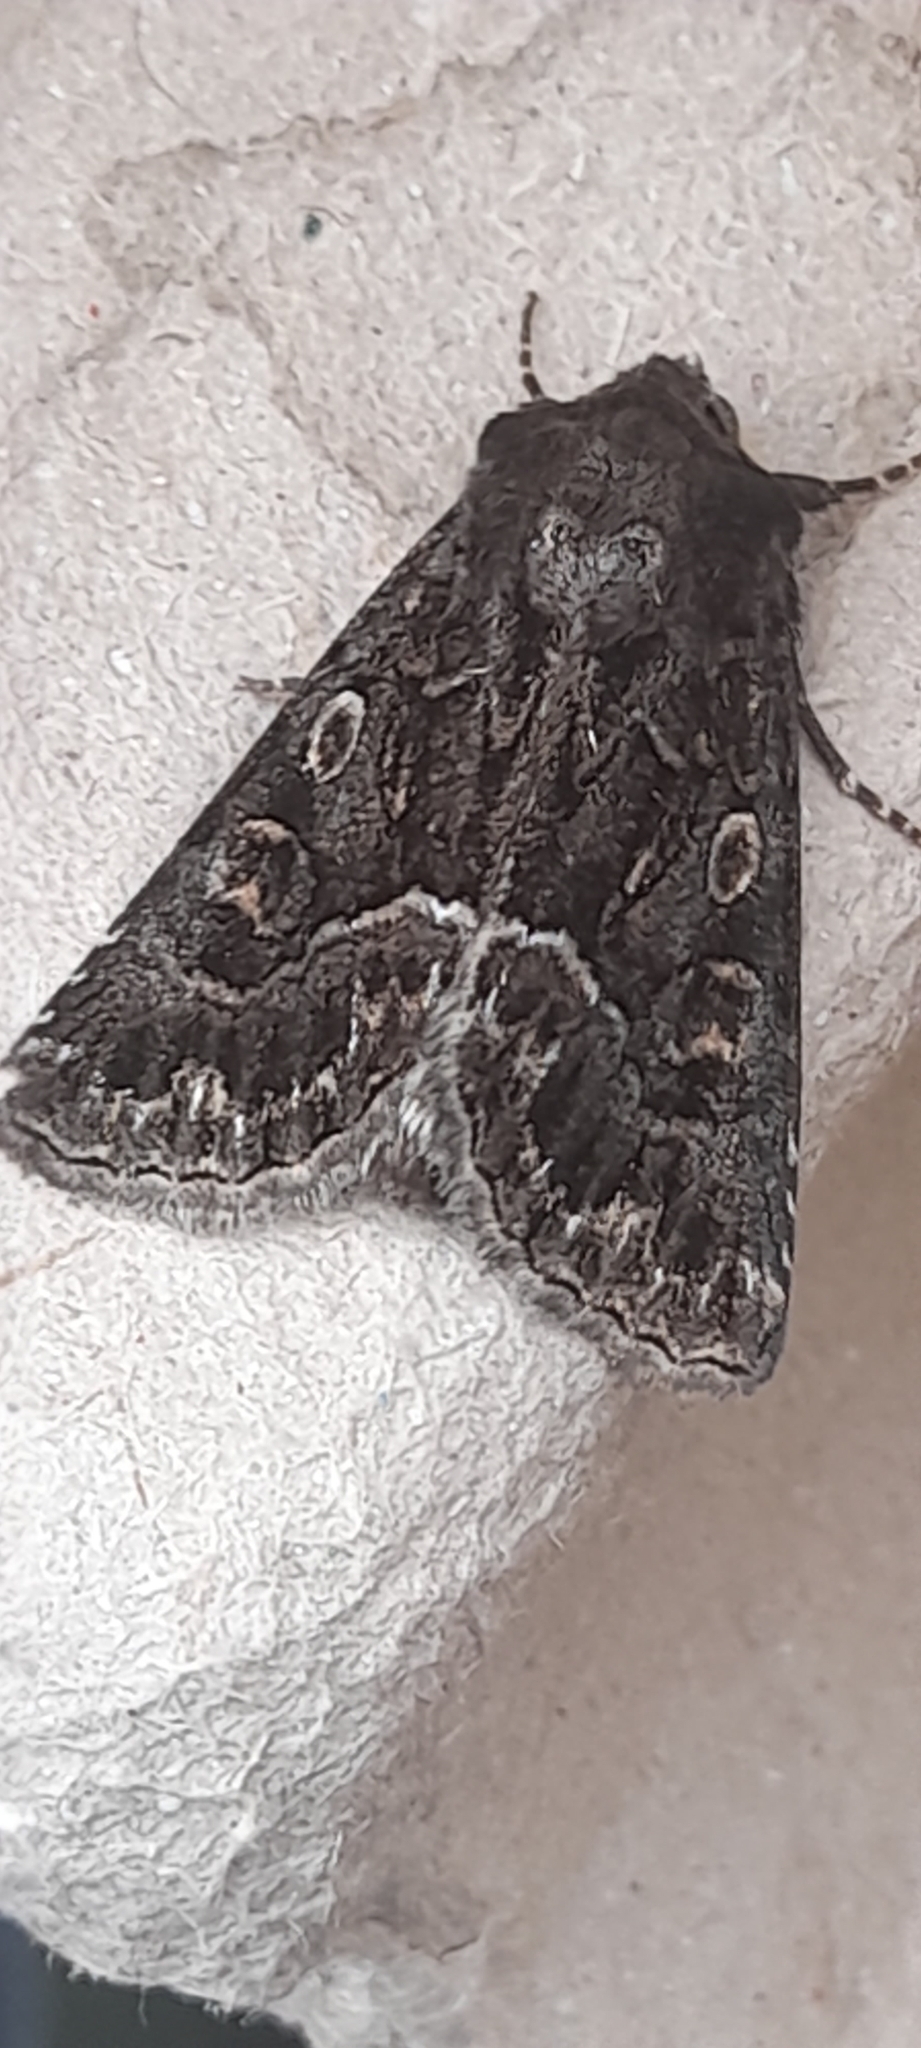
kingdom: Animalia
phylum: Arthropoda
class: Insecta
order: Lepidoptera
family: Noctuidae
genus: Thalpophila
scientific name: Thalpophila matura
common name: Straw underwing
